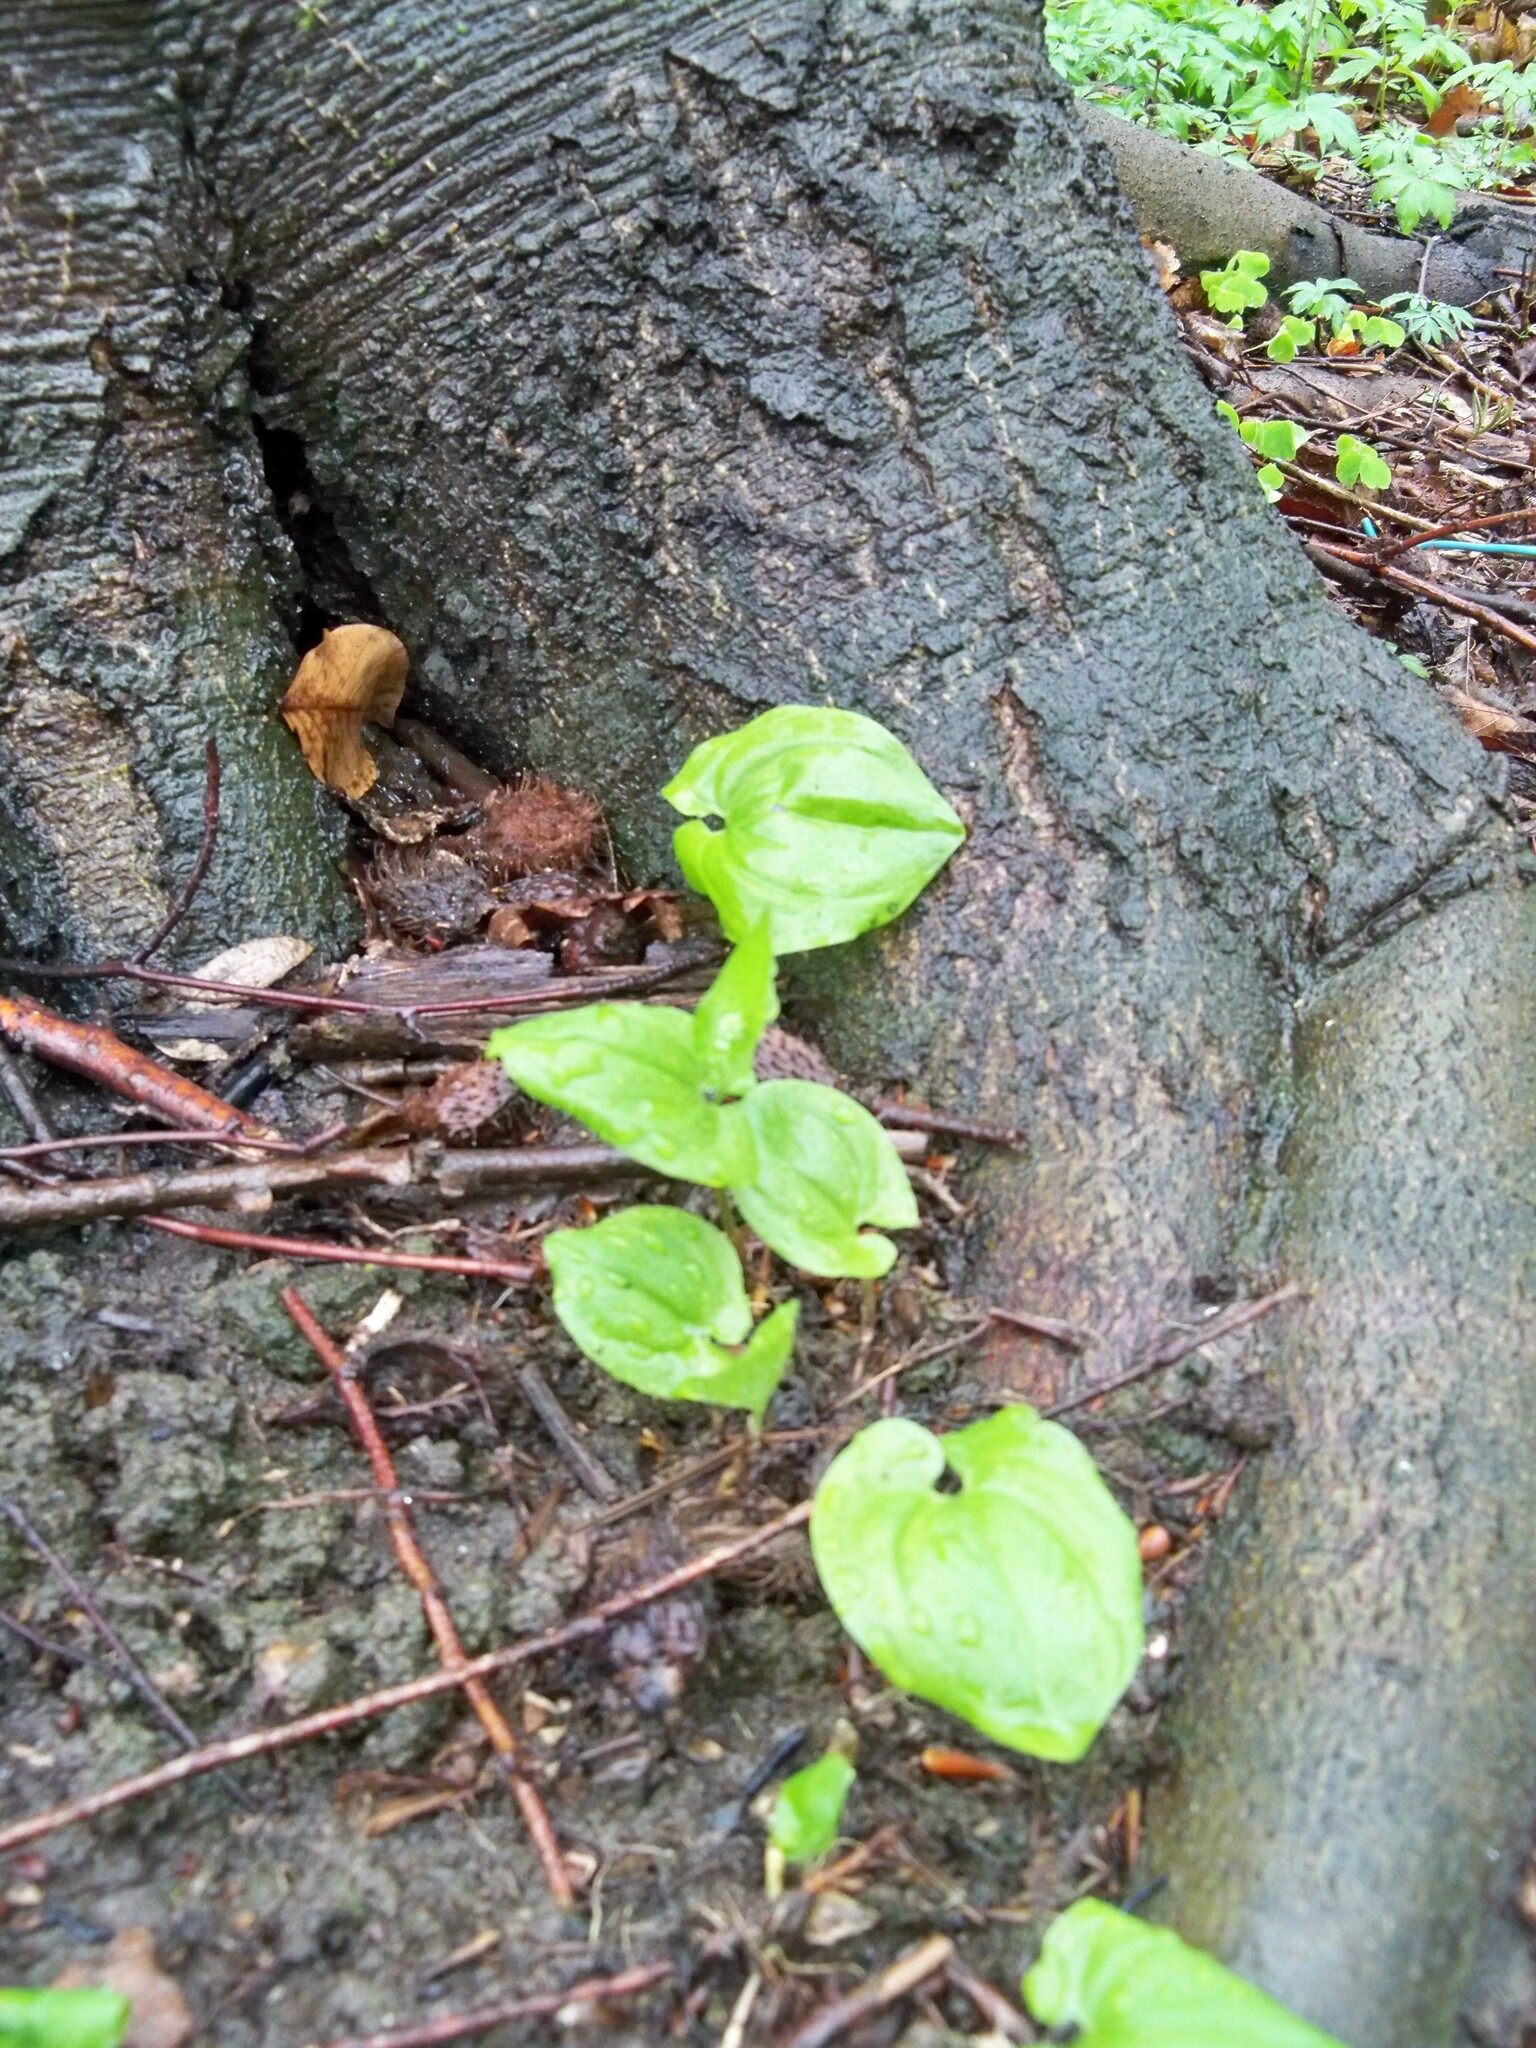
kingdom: Plantae
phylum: Tracheophyta
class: Liliopsida
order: Asparagales
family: Asparagaceae
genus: Maianthemum
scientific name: Maianthemum bifolium
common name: May lily
